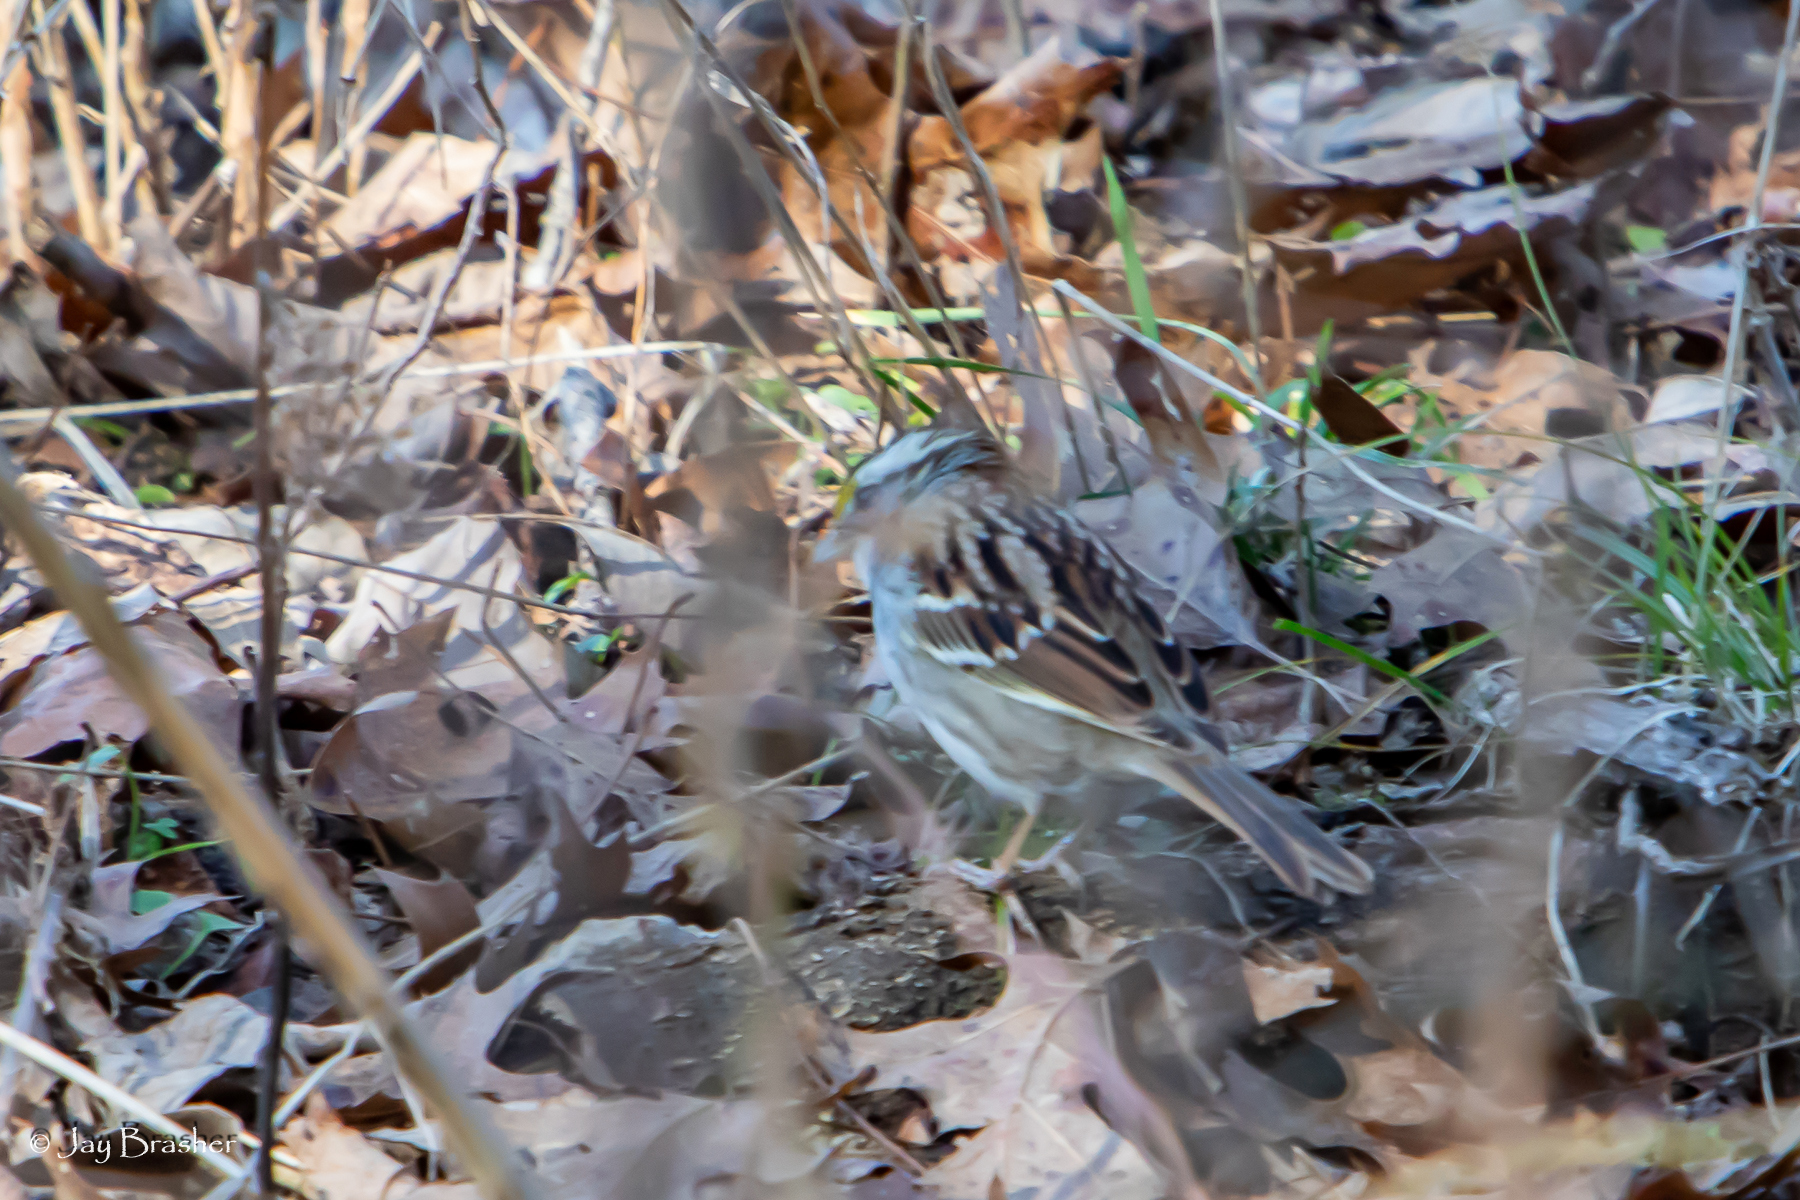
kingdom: Animalia
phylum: Chordata
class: Aves
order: Passeriformes
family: Passerellidae
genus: Zonotrichia
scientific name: Zonotrichia albicollis
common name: White-throated sparrow
